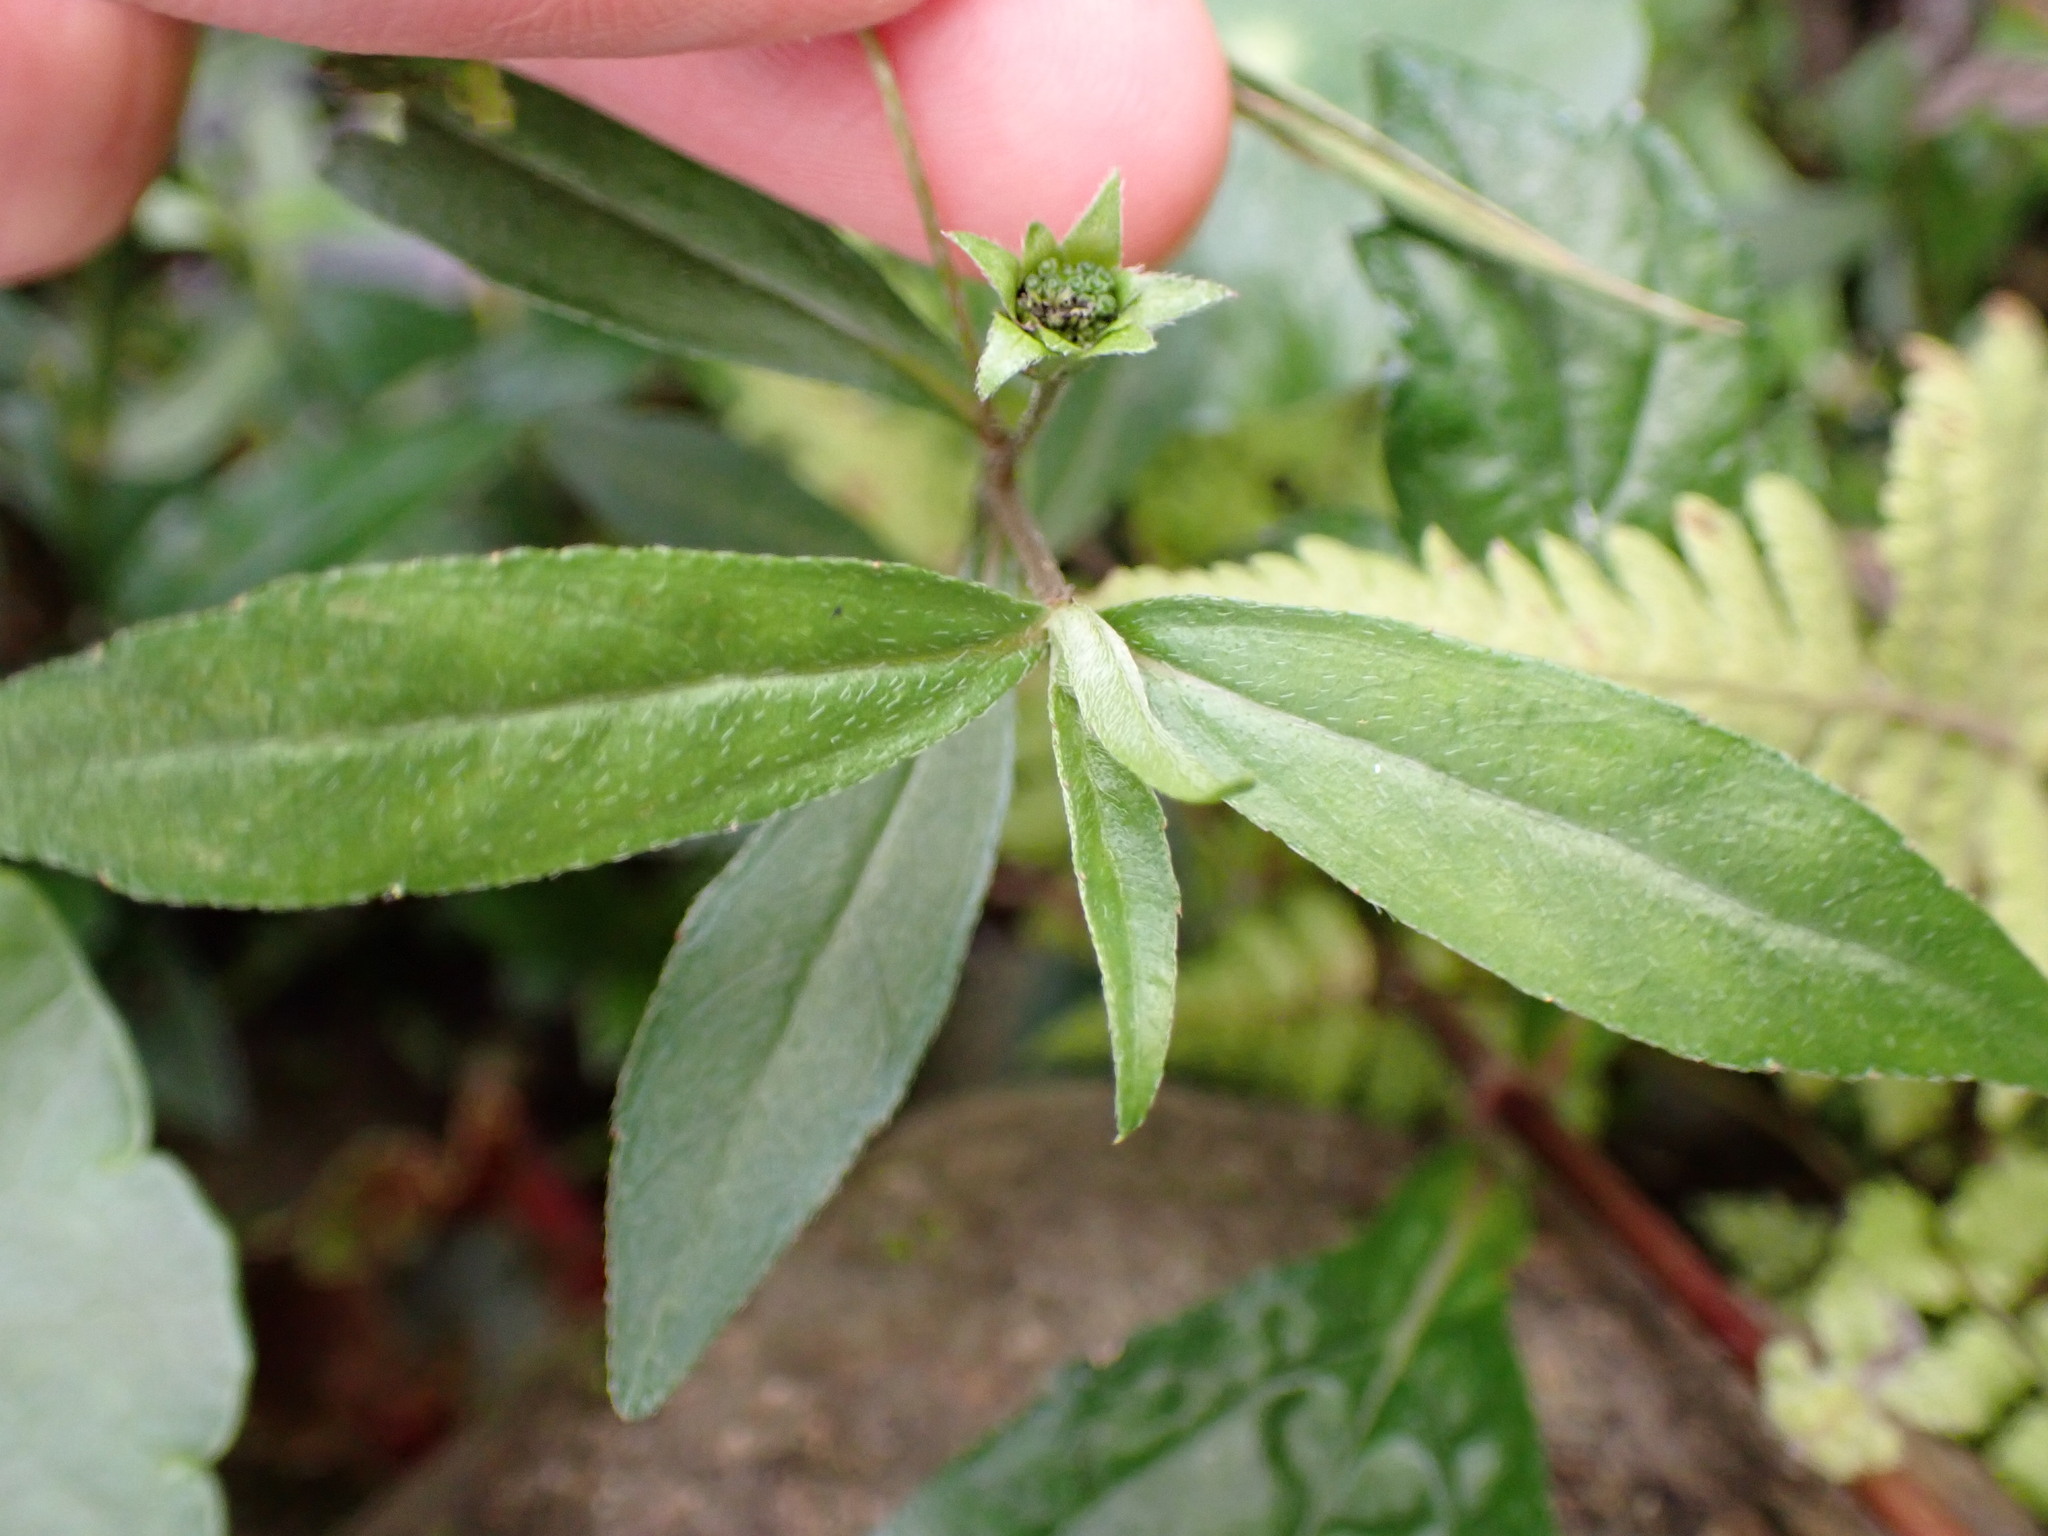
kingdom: Plantae
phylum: Tracheophyta
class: Magnoliopsida
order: Asterales
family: Asteraceae
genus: Eclipta
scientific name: Eclipta prostrata
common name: False daisy
